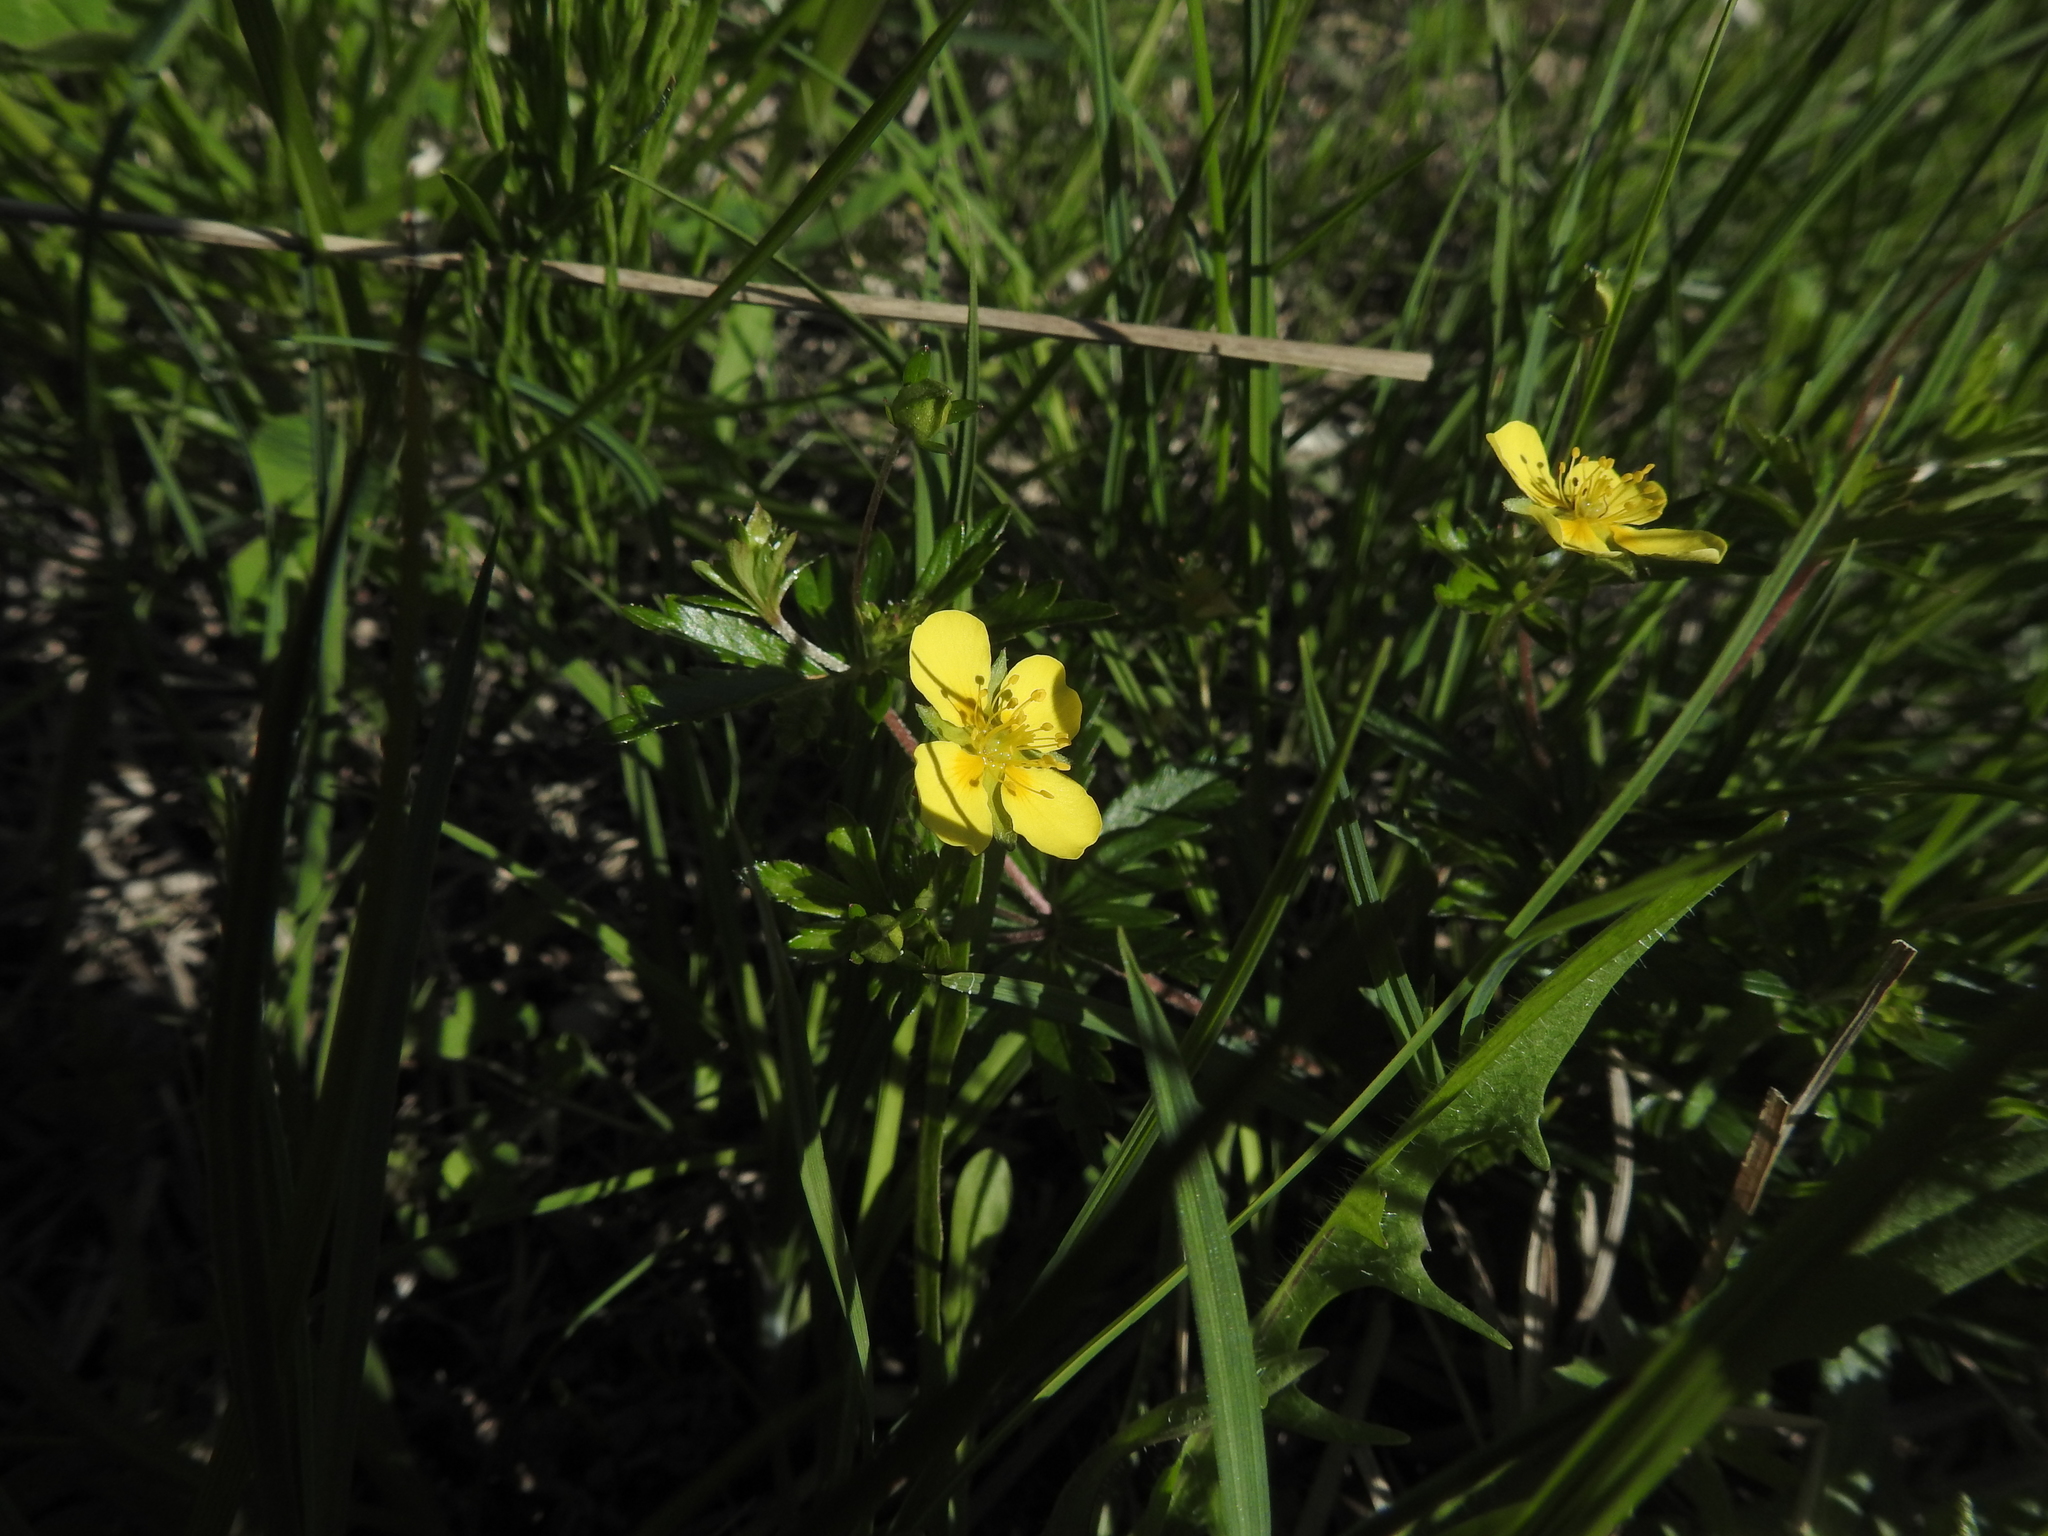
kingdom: Plantae
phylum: Tracheophyta
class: Magnoliopsida
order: Rosales
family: Rosaceae
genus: Potentilla
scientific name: Potentilla erecta
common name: Tormentil
